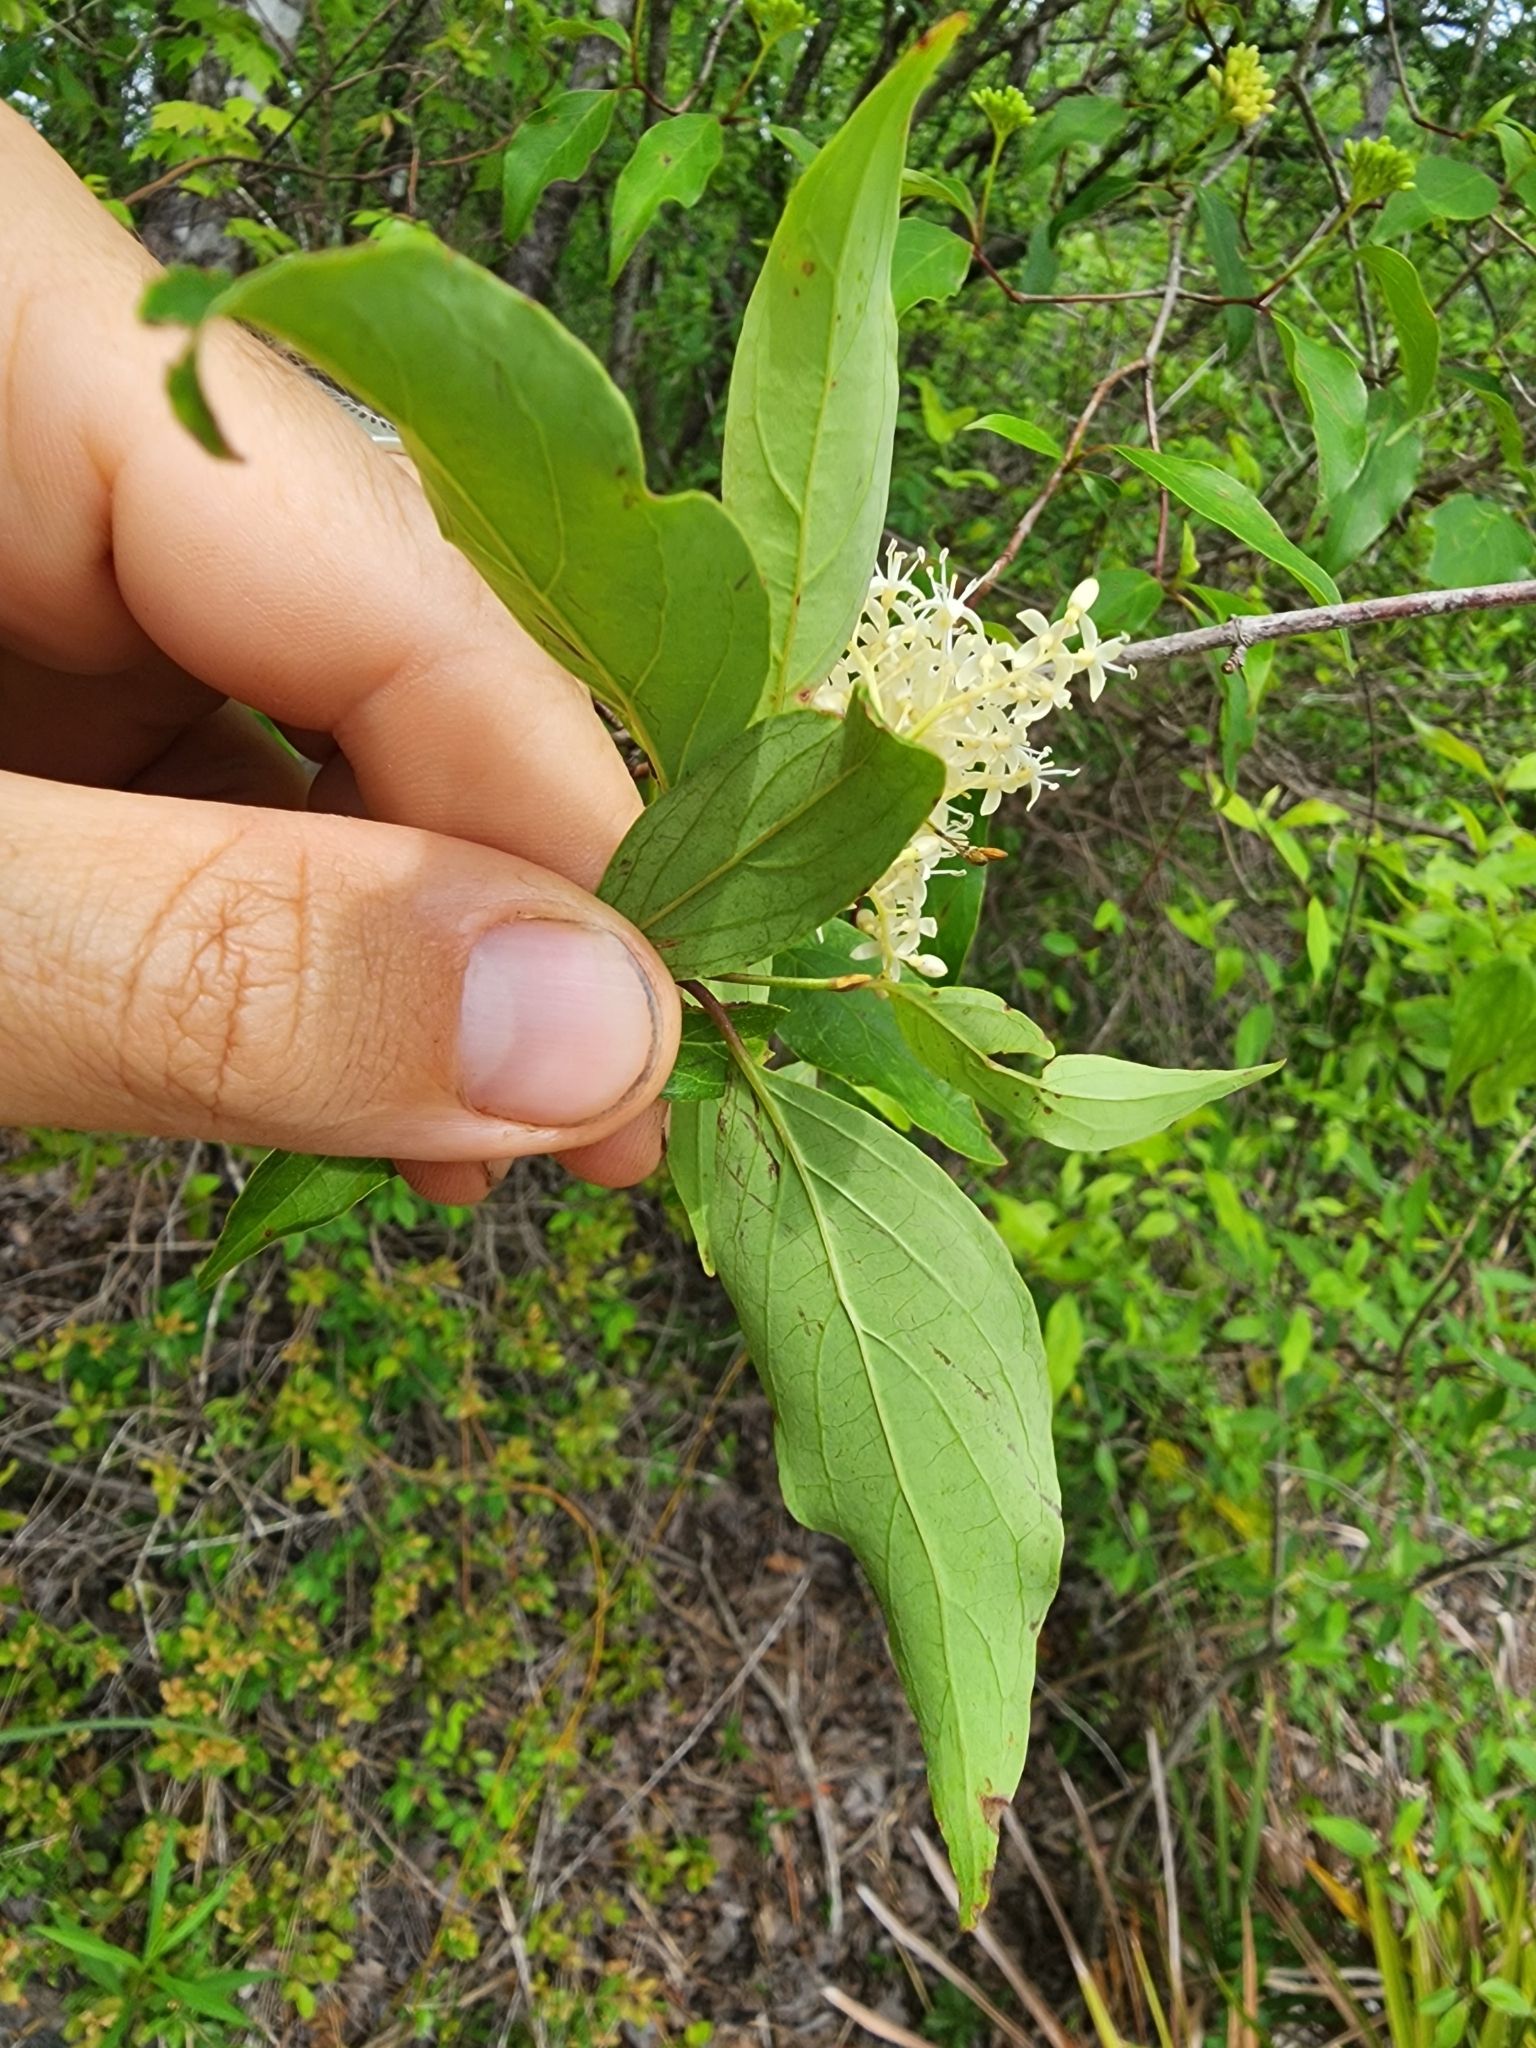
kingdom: Plantae
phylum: Tracheophyta
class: Magnoliopsida
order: Cornales
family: Cornaceae
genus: Cornus
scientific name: Cornus foemina
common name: Swamp dogwood
